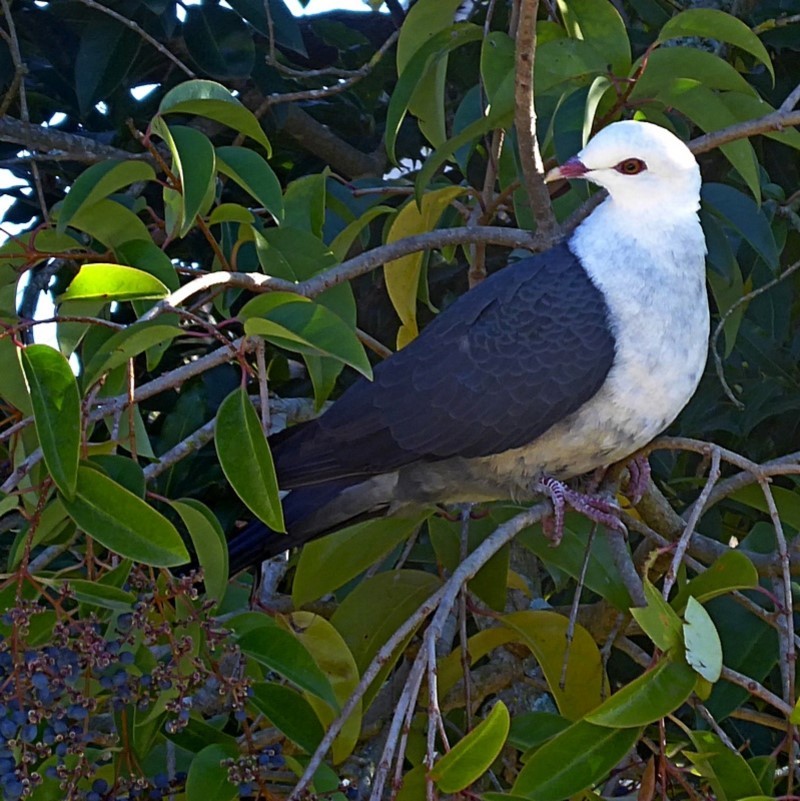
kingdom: Animalia
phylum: Chordata
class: Aves
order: Columbiformes
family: Columbidae
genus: Columba
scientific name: Columba leucomela
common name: White-headed pigeon
